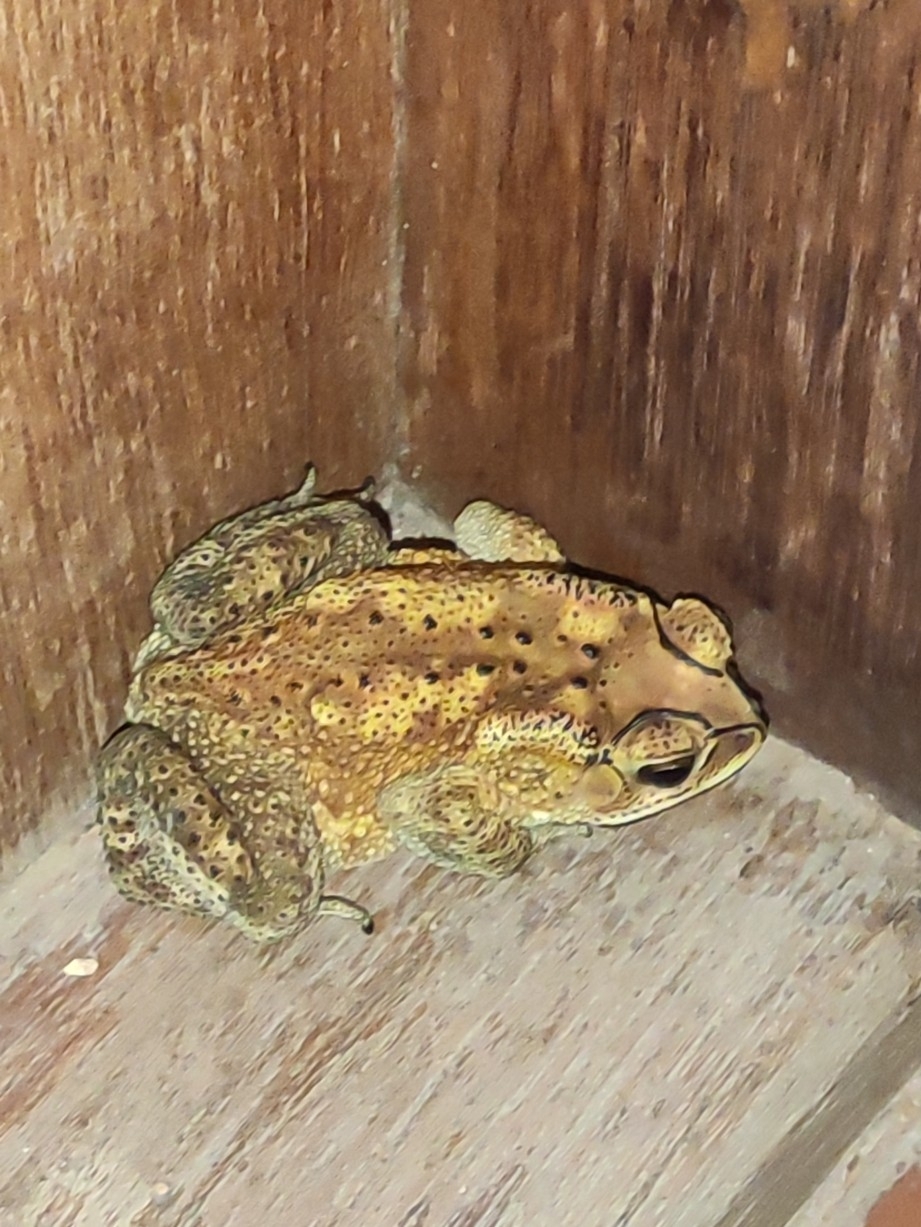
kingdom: Animalia
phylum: Chordata
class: Amphibia
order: Anura
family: Bufonidae
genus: Duttaphrynus
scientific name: Duttaphrynus melanostictus
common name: Common sunda toad
